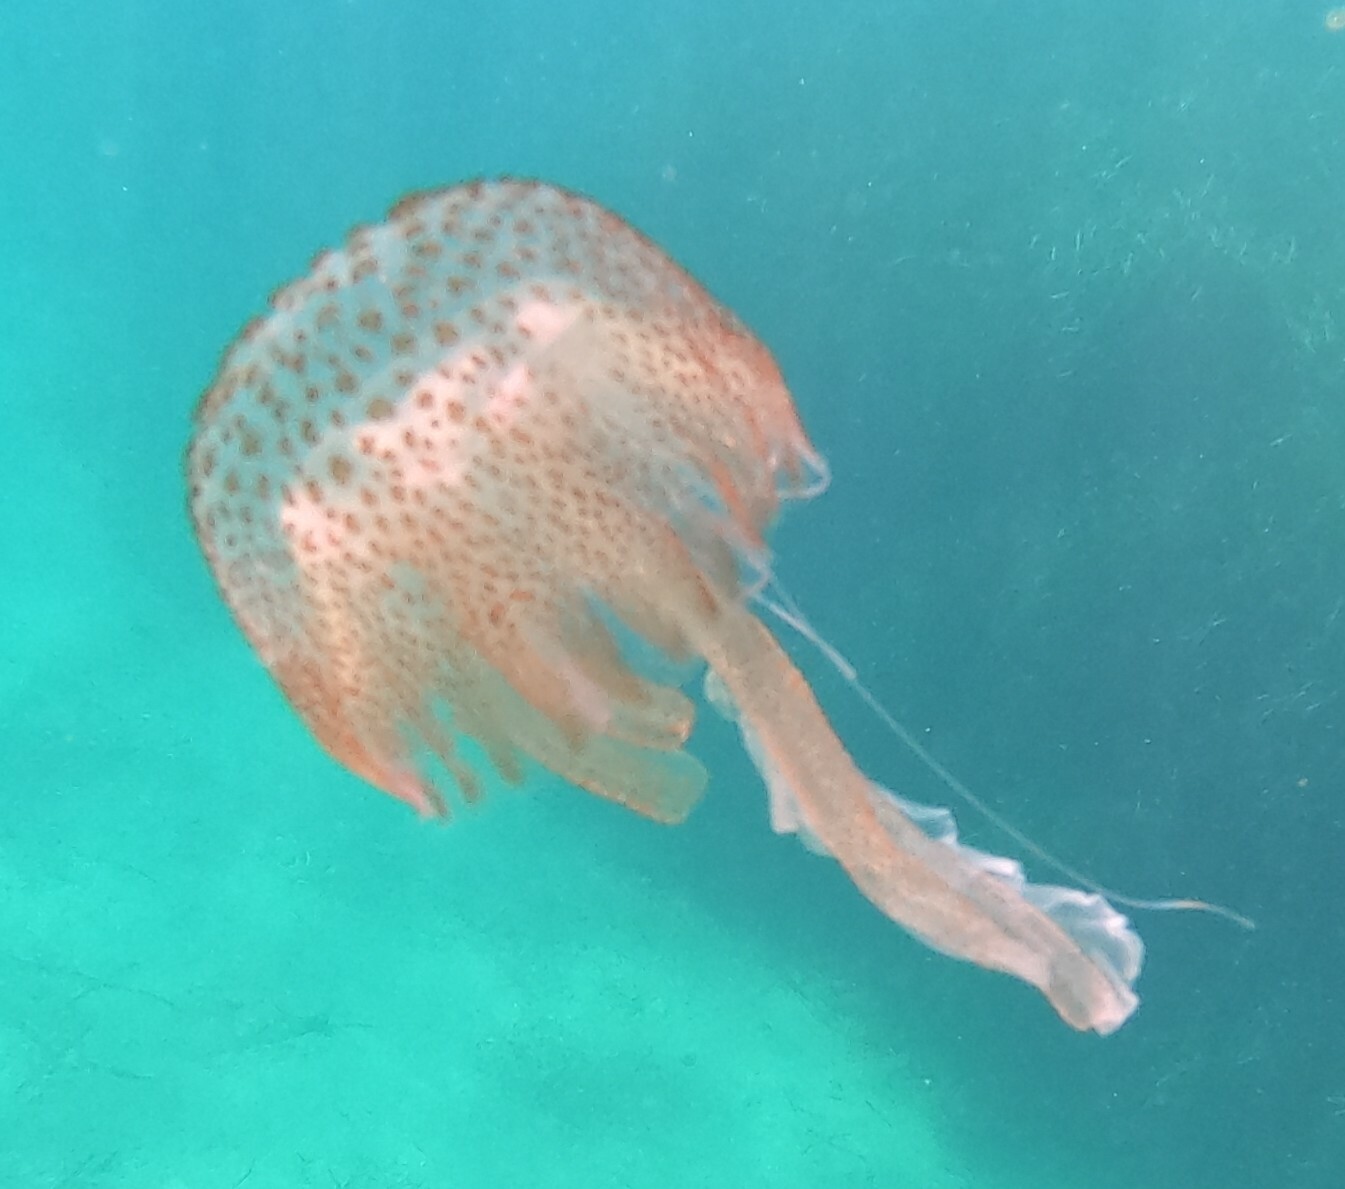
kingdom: Animalia
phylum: Cnidaria
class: Scyphozoa
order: Semaeostomeae
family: Pelagiidae
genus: Pelagia
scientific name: Pelagia noctiluca
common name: Mauve stinger
